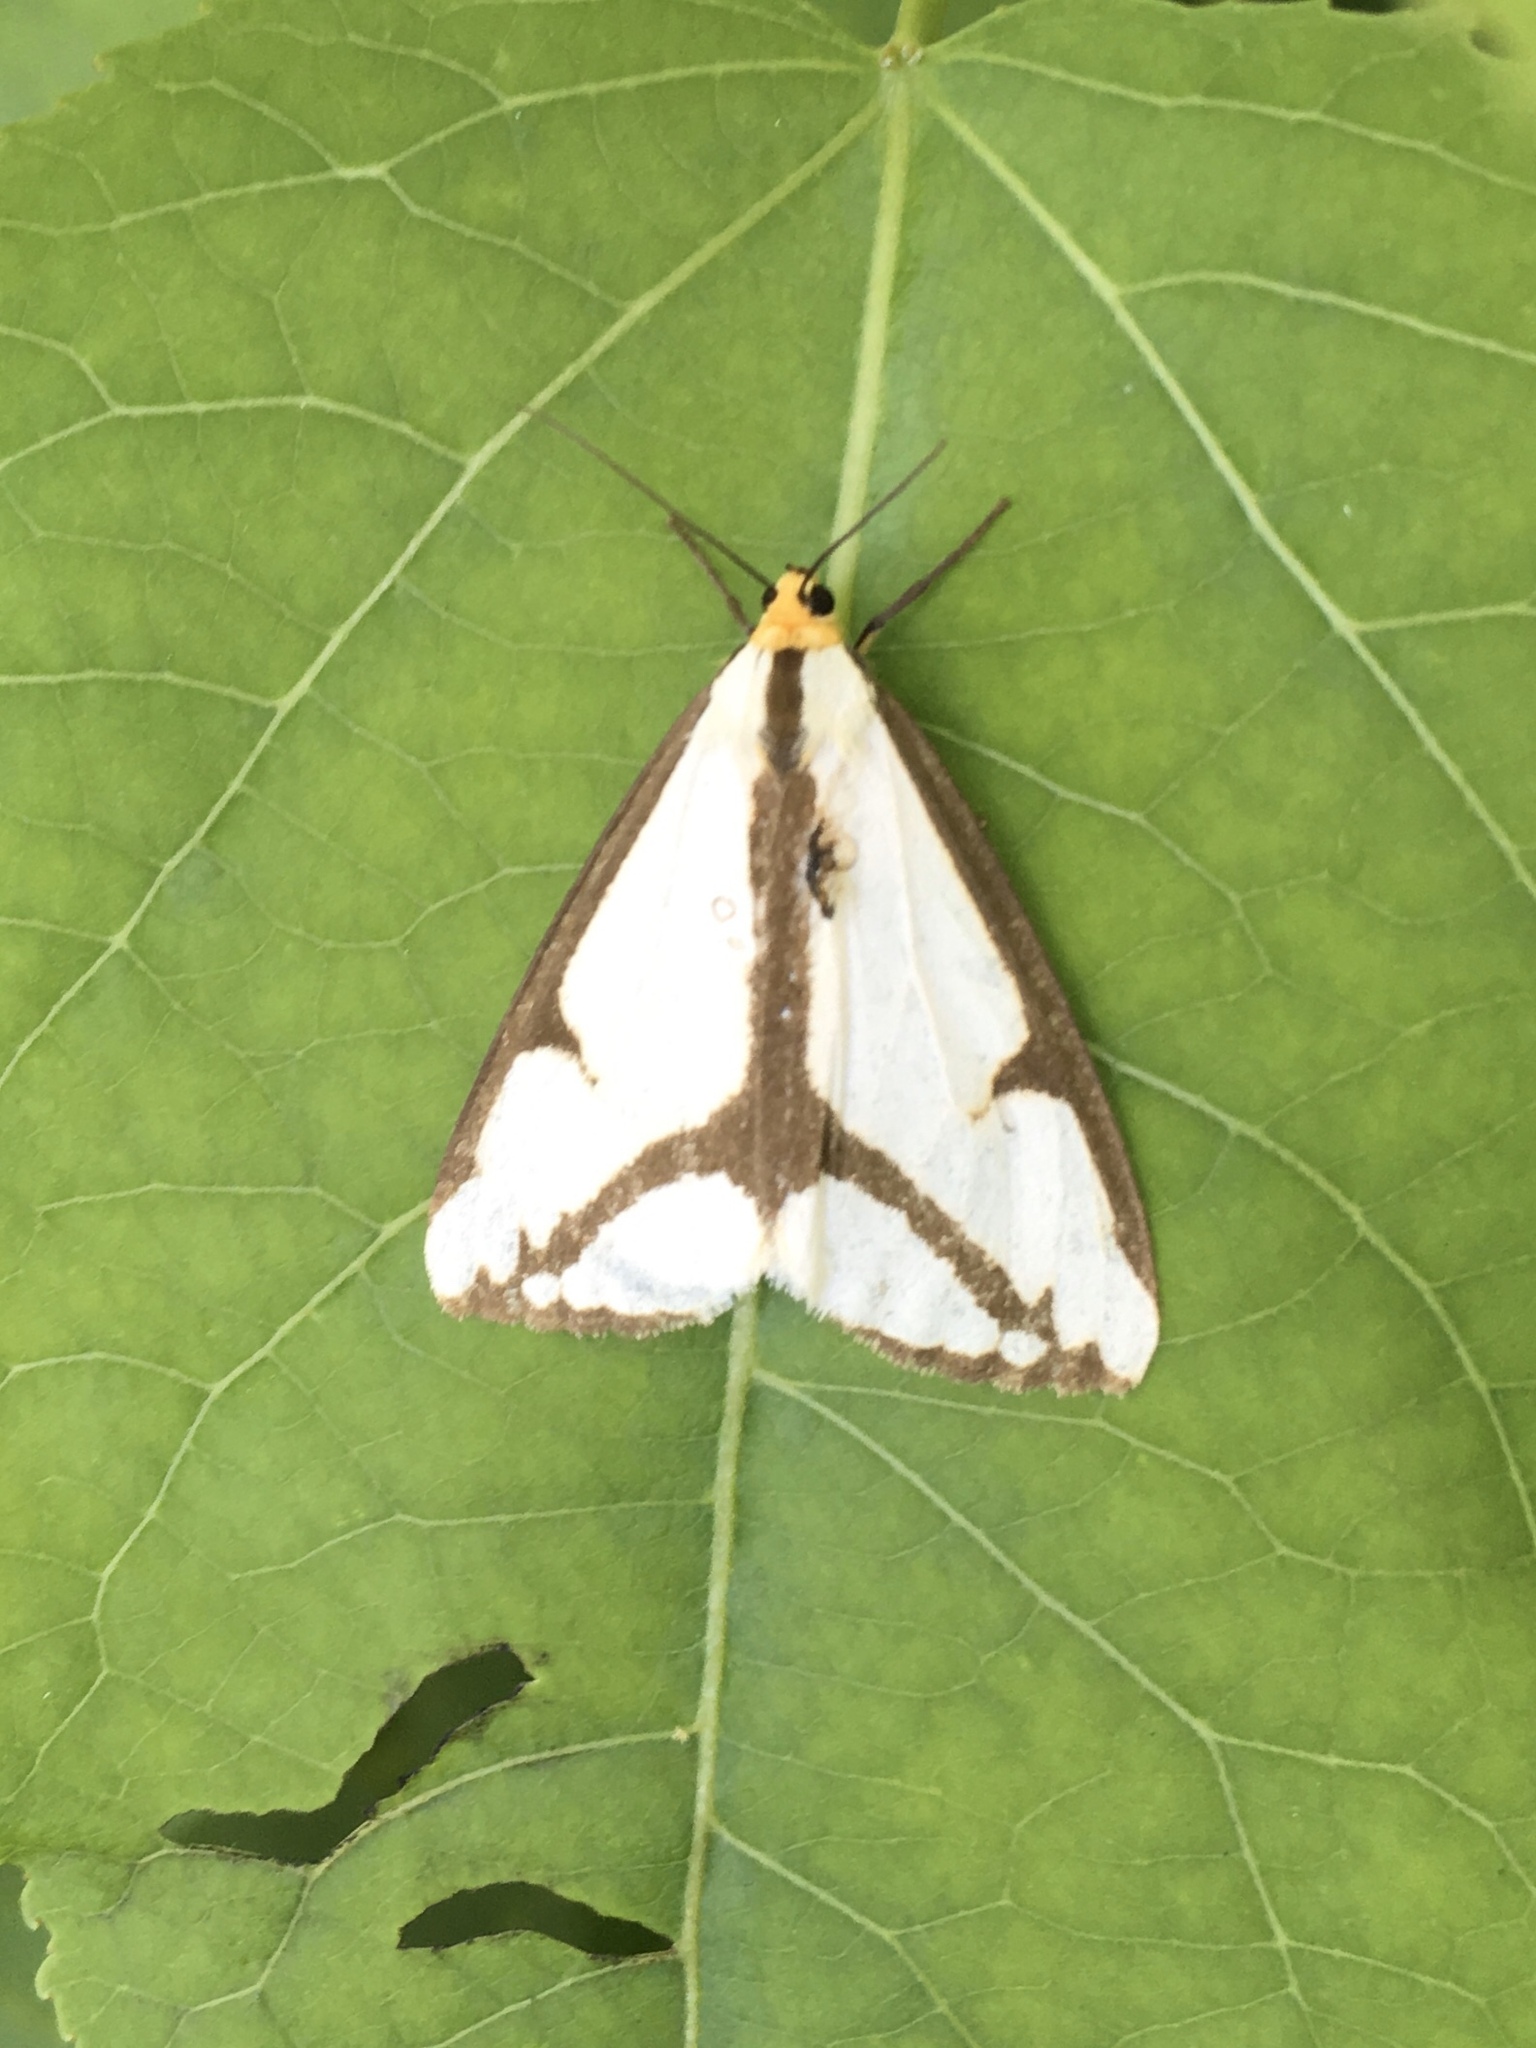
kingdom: Animalia
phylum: Arthropoda
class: Insecta
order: Lepidoptera
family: Erebidae
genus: Haploa
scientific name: Haploa lecontei
